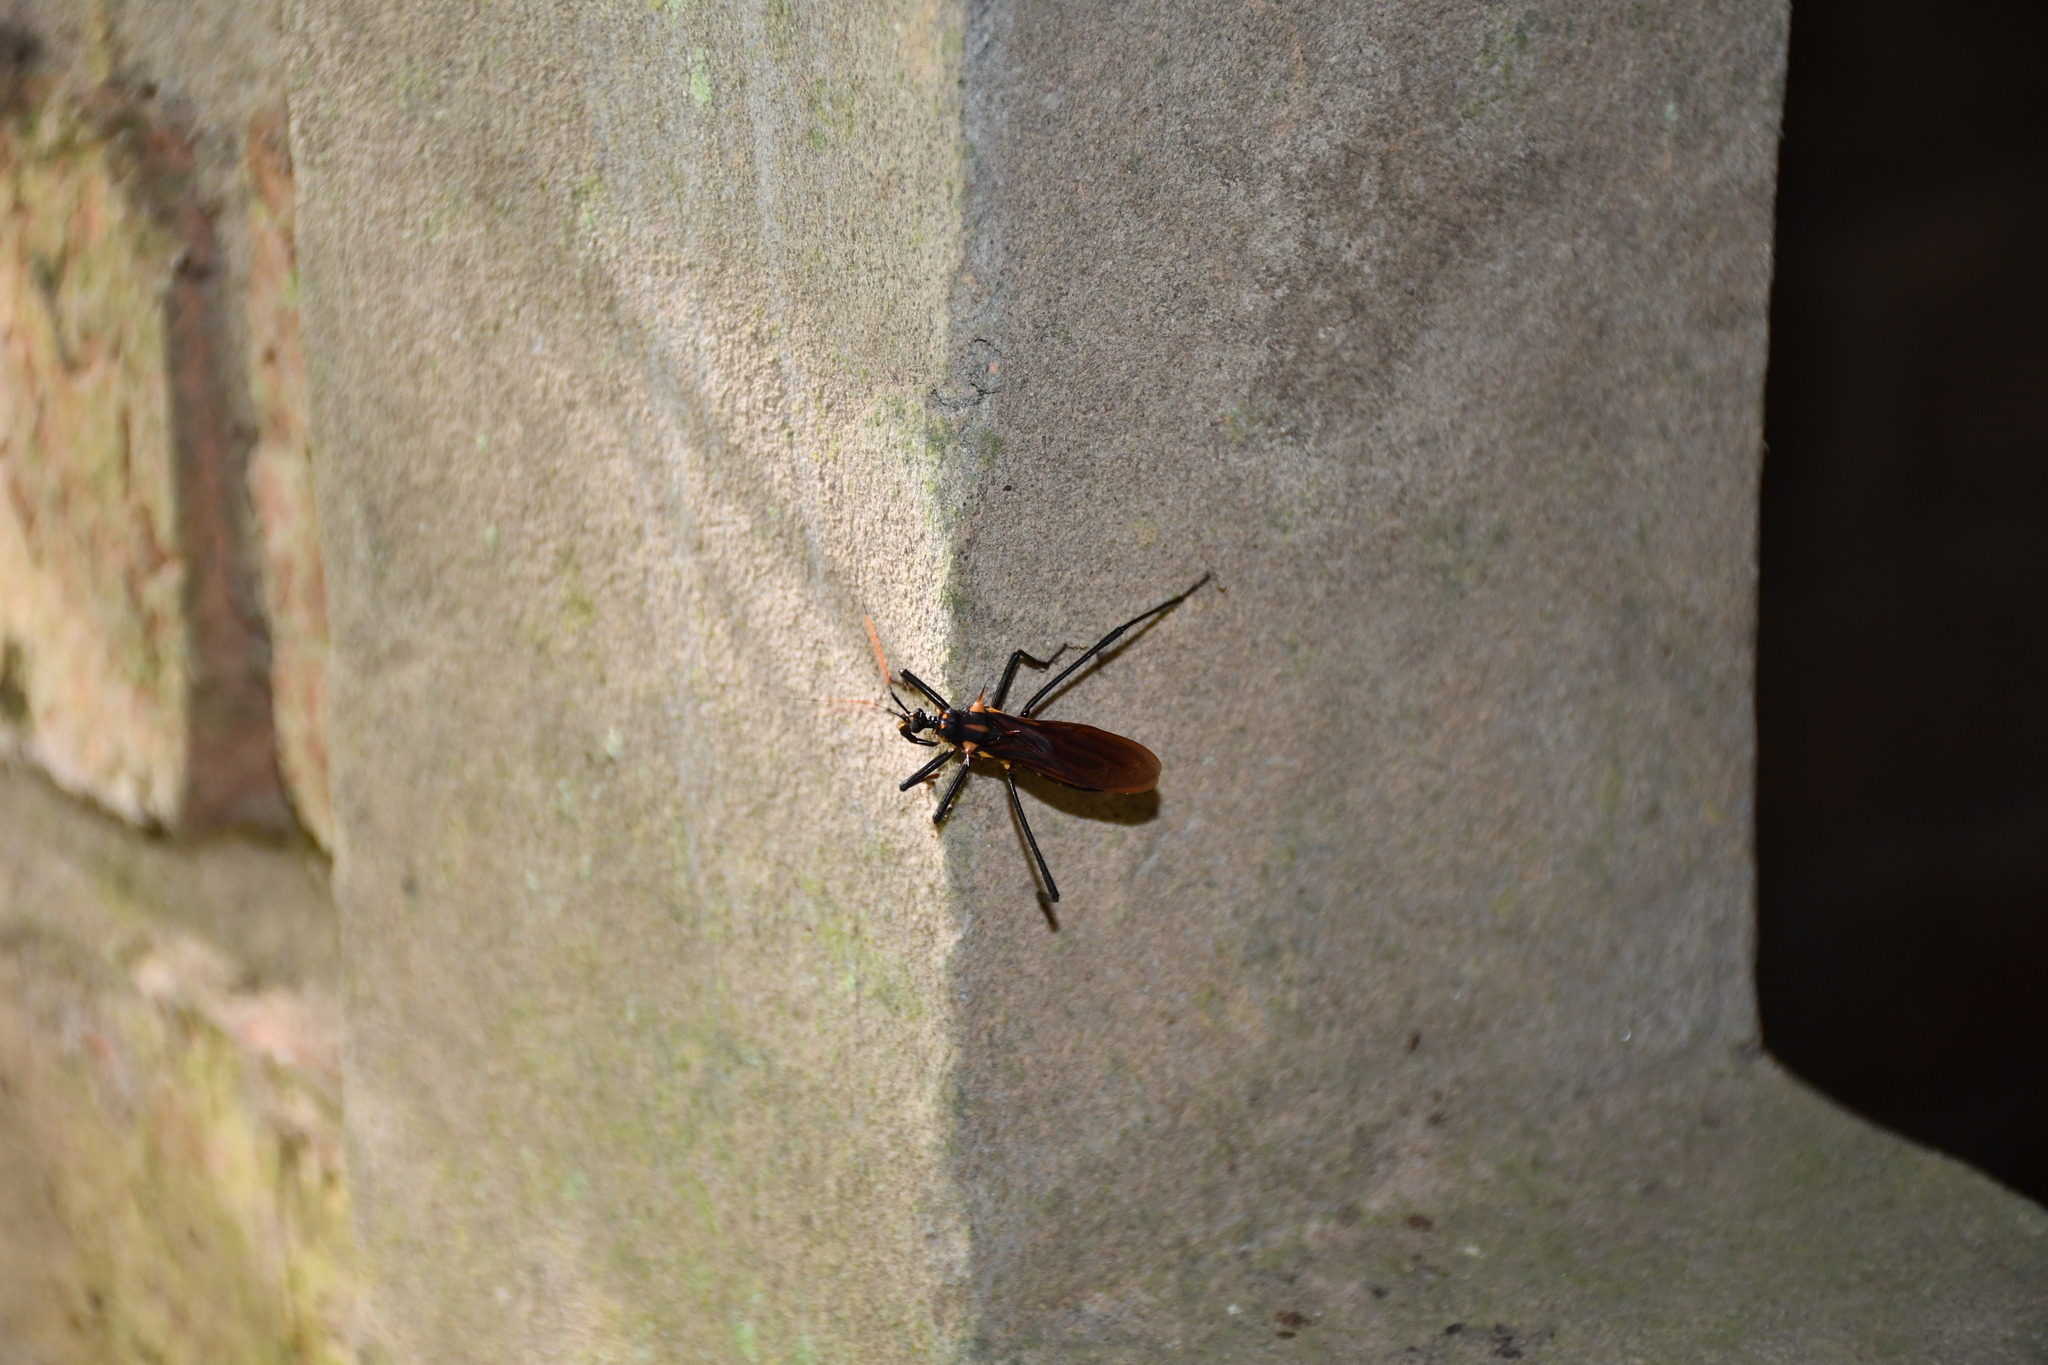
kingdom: Animalia
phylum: Arthropoda
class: Insecta
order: Hemiptera
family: Reduviidae
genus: Zelurus
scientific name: Zelurus festivus
